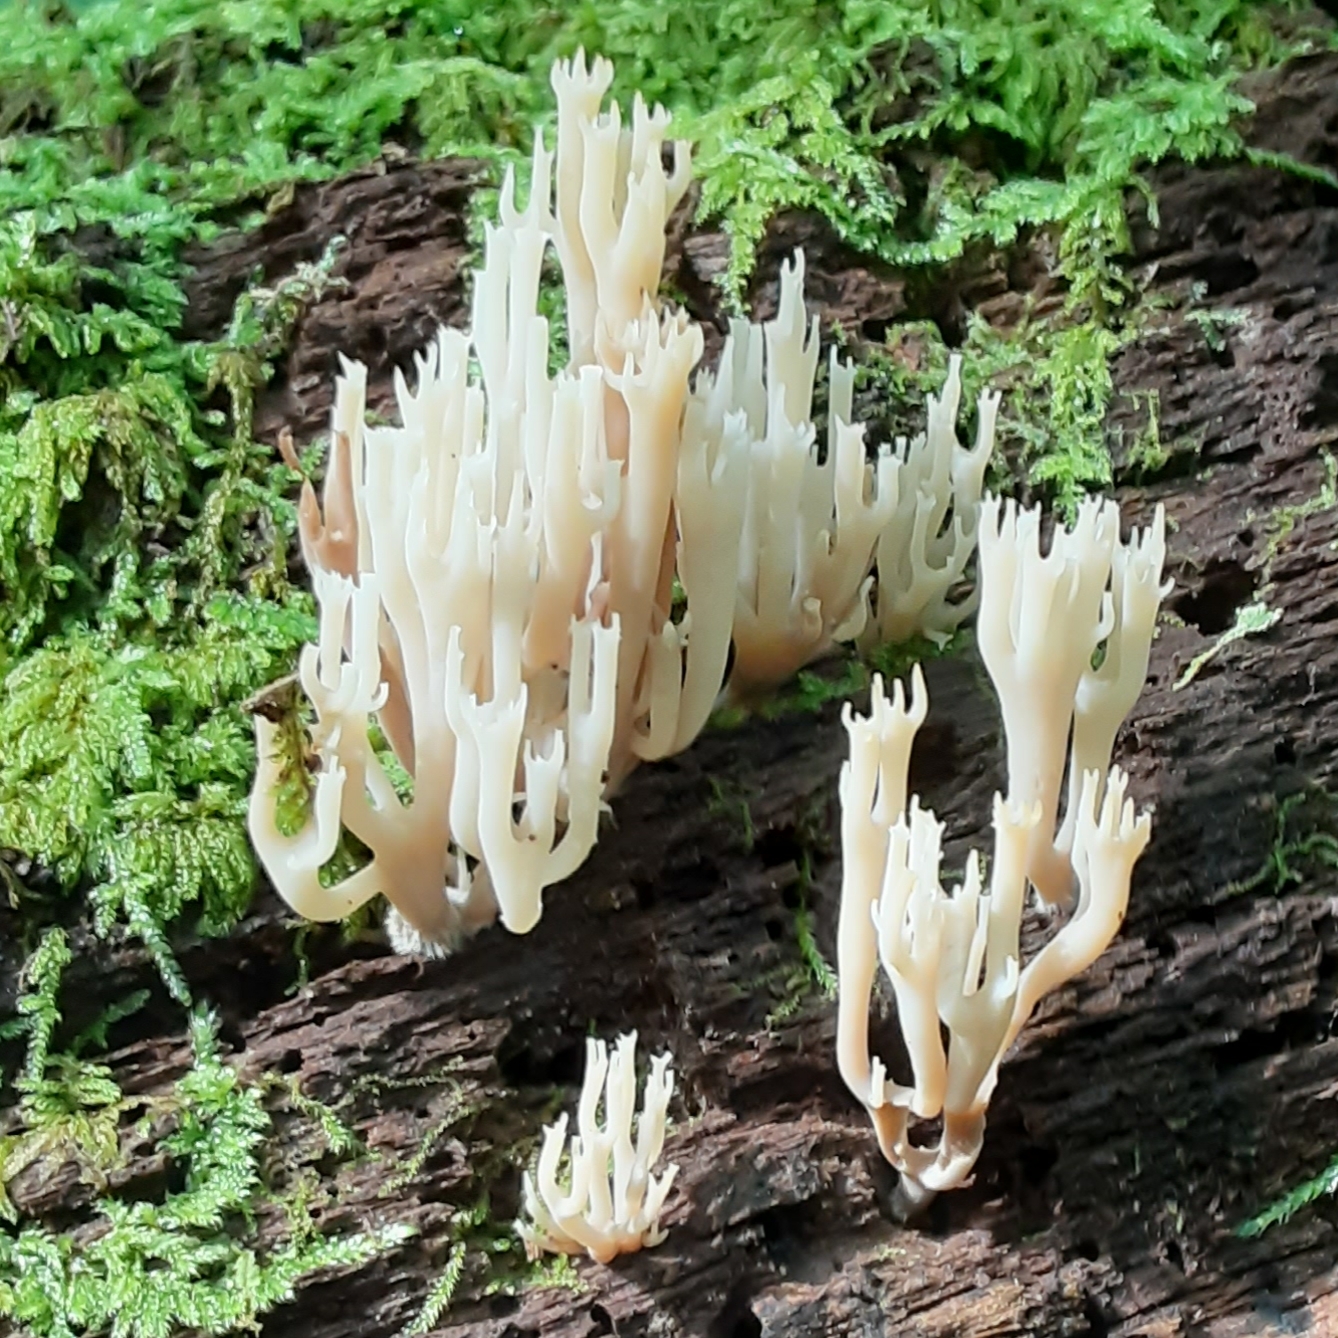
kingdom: Fungi
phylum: Basidiomycota
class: Agaricomycetes
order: Russulales
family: Auriscalpiaceae
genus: Artomyces
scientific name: Artomyces pyxidatus
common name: Crown-tipped coral fungus
